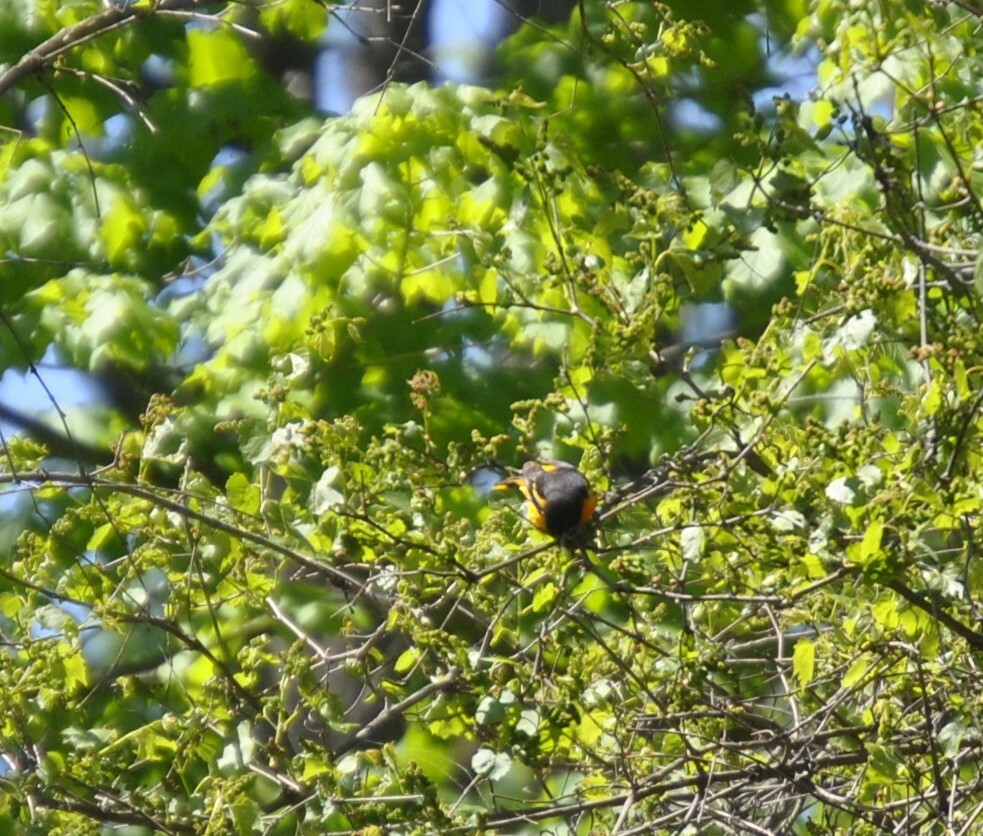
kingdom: Animalia
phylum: Chordata
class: Aves
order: Passeriformes
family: Icteridae
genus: Icterus
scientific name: Icterus galbula
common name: Baltimore oriole
